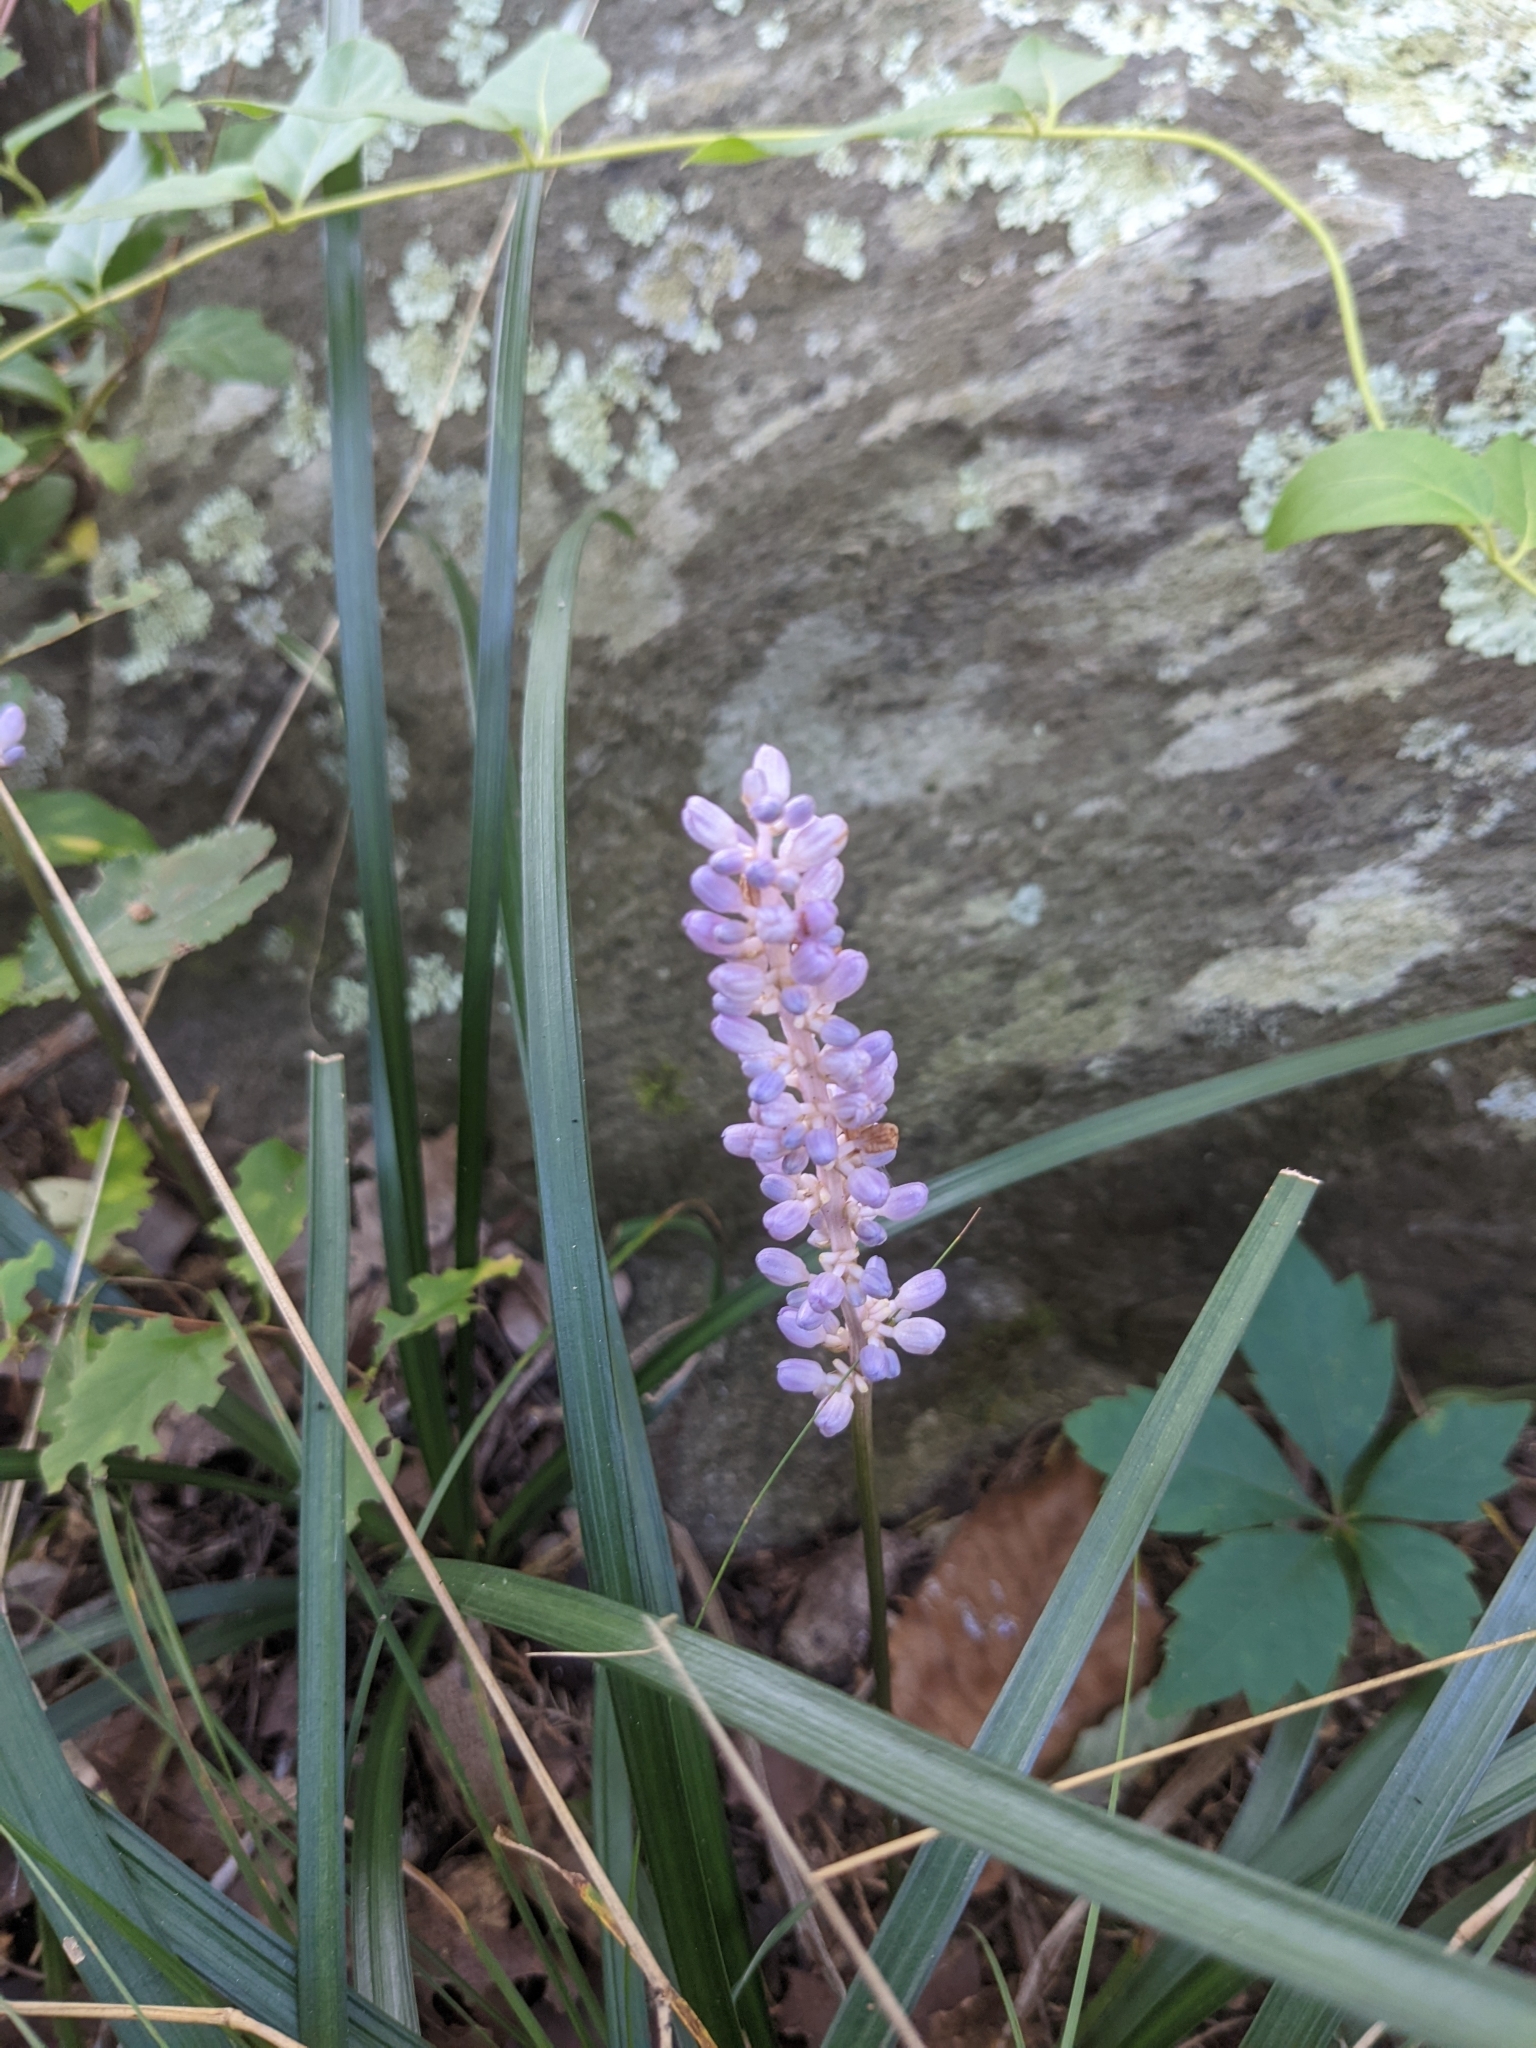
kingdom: Plantae
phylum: Tracheophyta
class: Liliopsida
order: Asparagales
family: Asparagaceae
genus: Liriope
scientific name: Liriope muscari
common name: Big blue lilyturf
